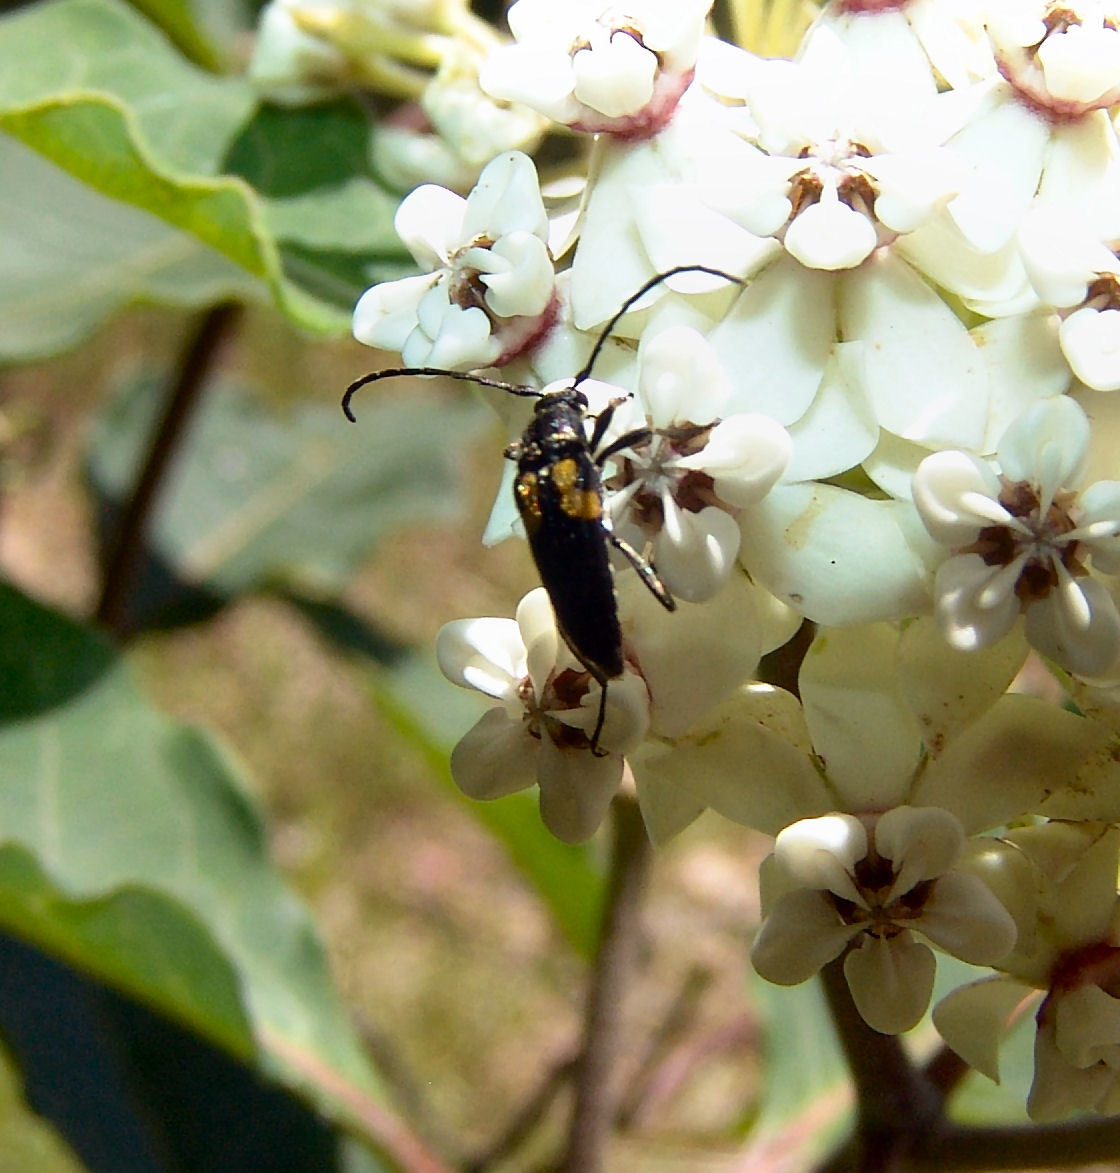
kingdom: Animalia
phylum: Arthropoda
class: Insecta
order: Coleoptera
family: Cerambycidae
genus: Typocerus
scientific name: Typocerus lunulatus
